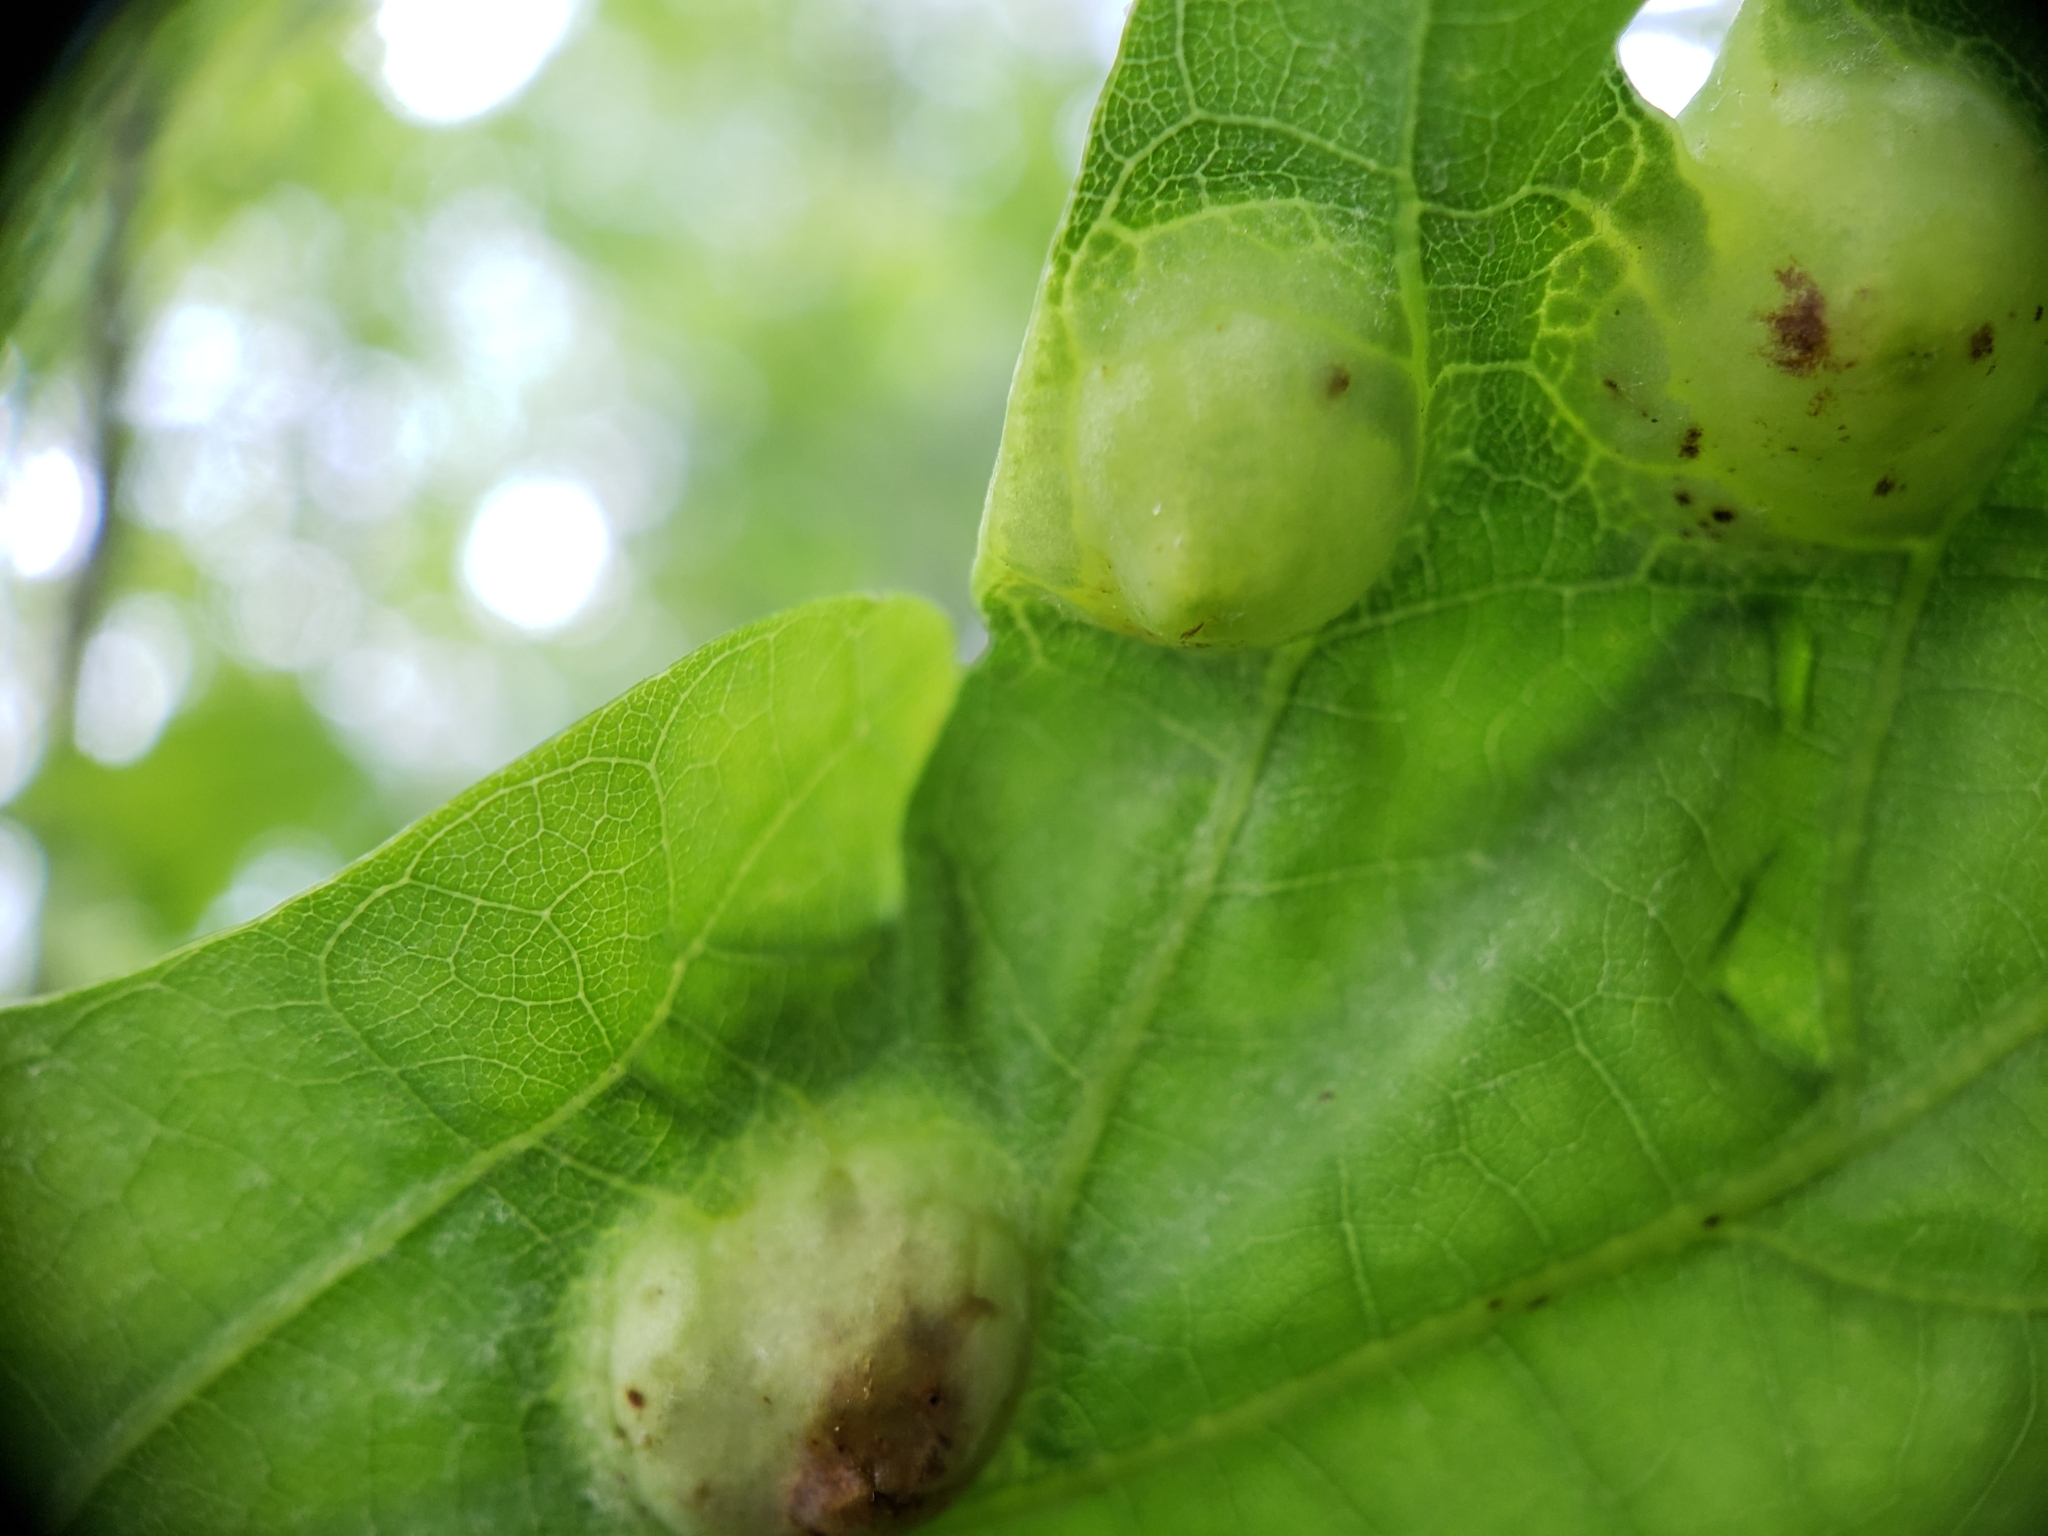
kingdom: Animalia
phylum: Arthropoda
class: Insecta
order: Hymenoptera
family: Cynipidae
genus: Callirhytis
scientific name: Callirhytis
